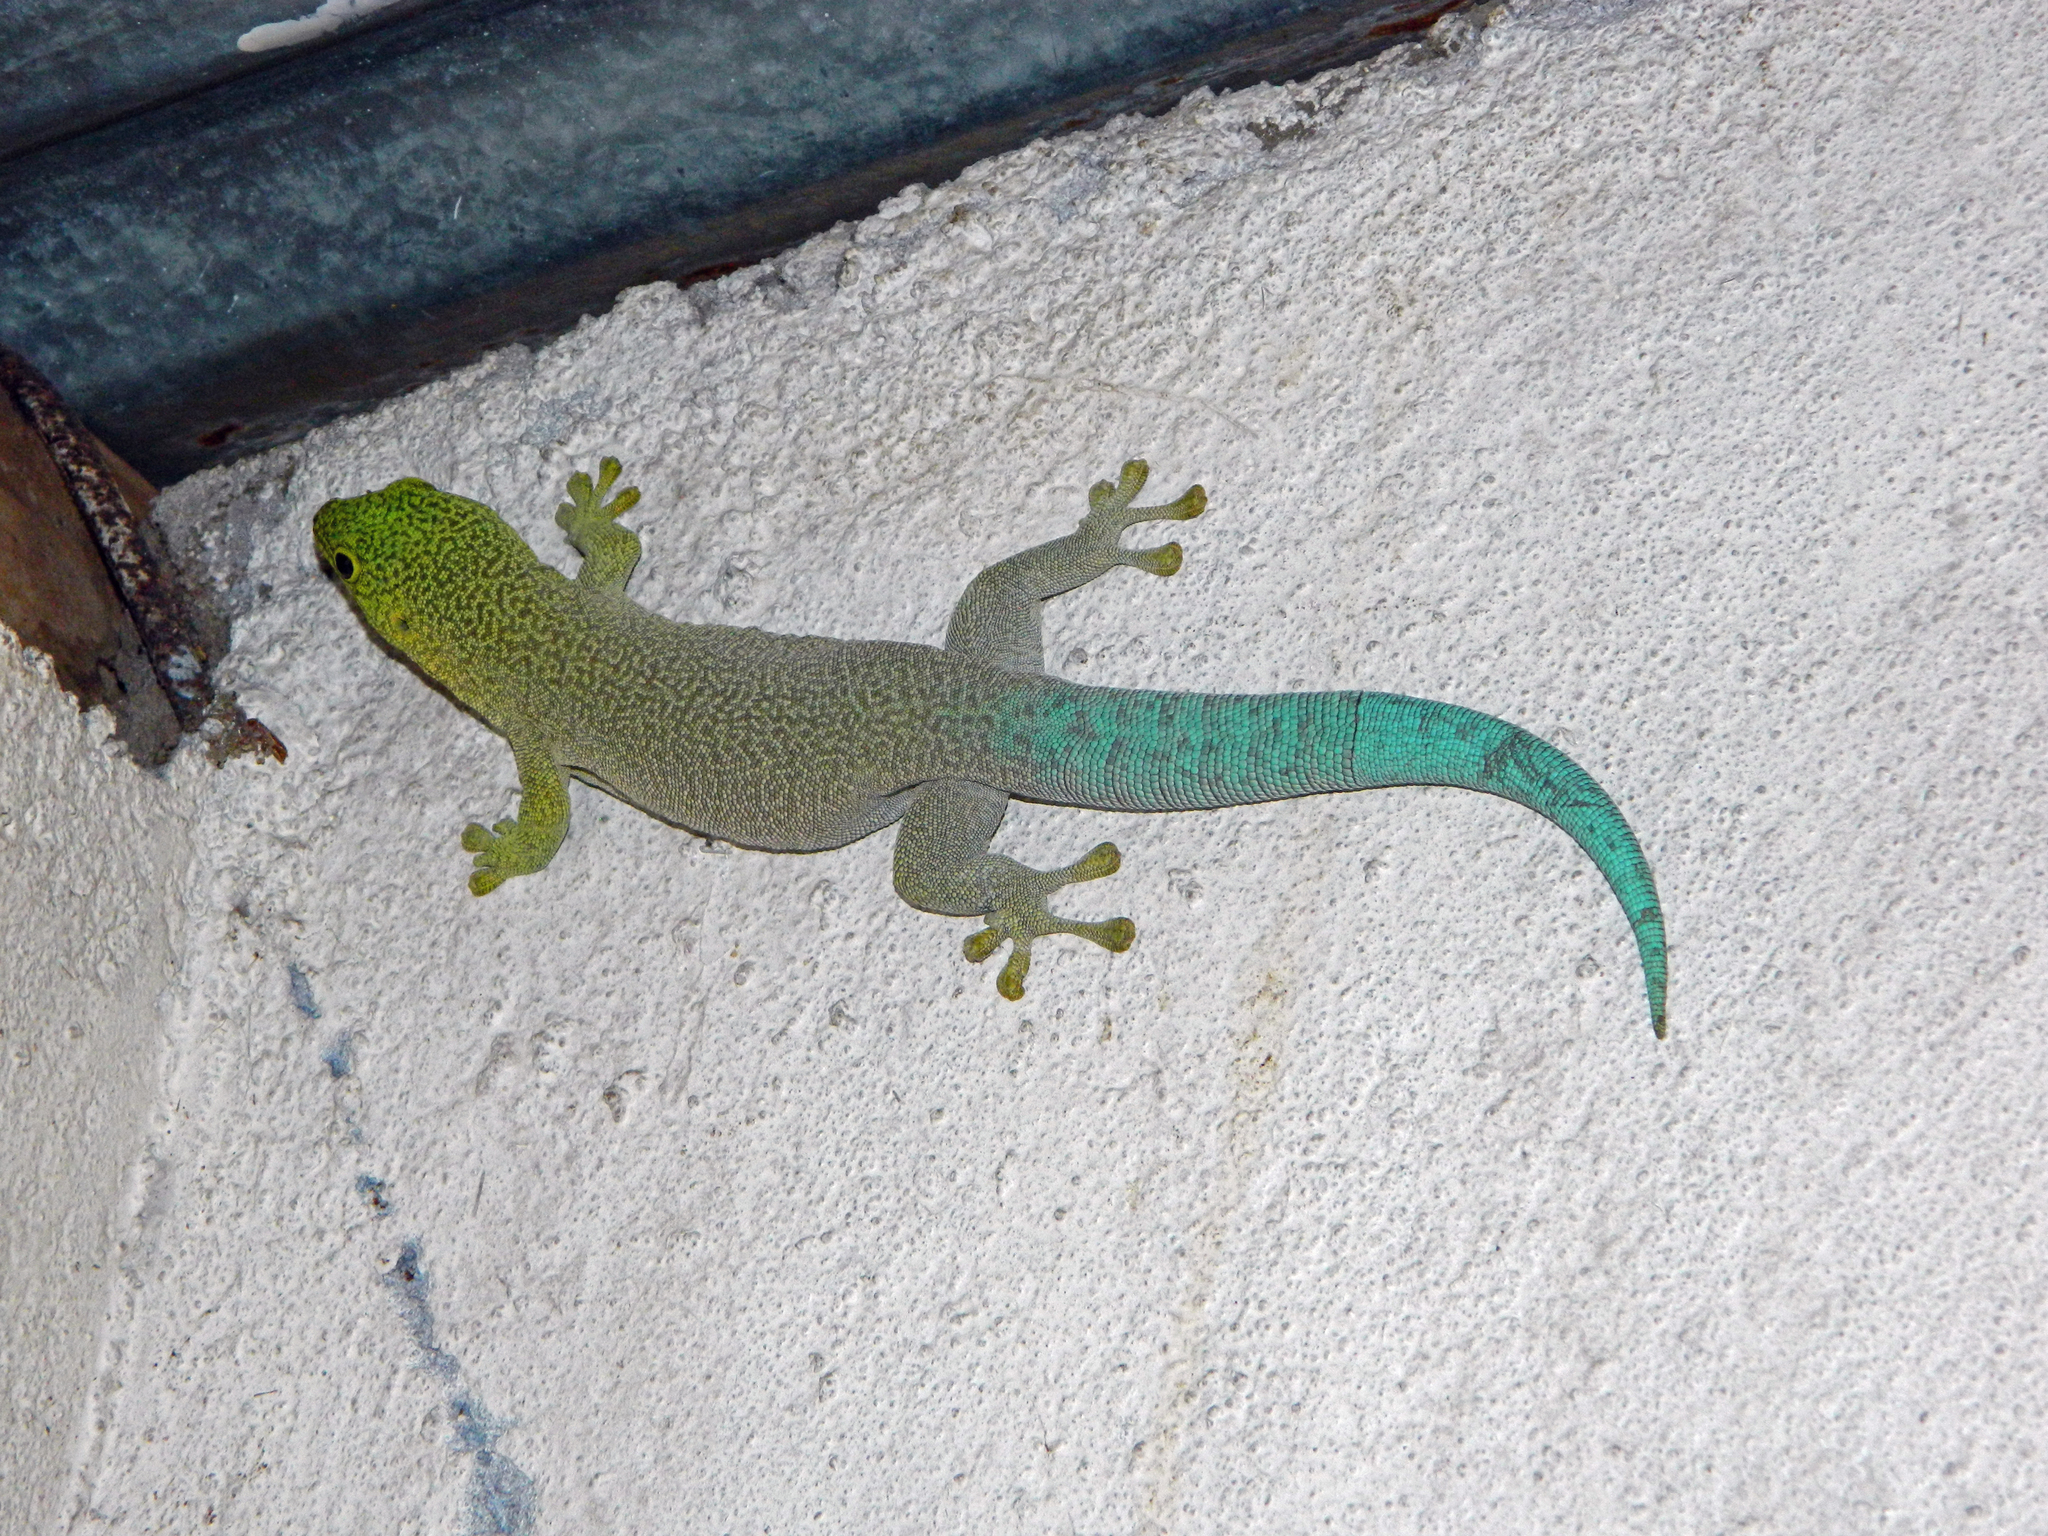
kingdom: Animalia
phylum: Chordata
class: Squamata
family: Gekkonidae
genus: Phelsuma
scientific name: Phelsuma standingi
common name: Standing's day gecko
